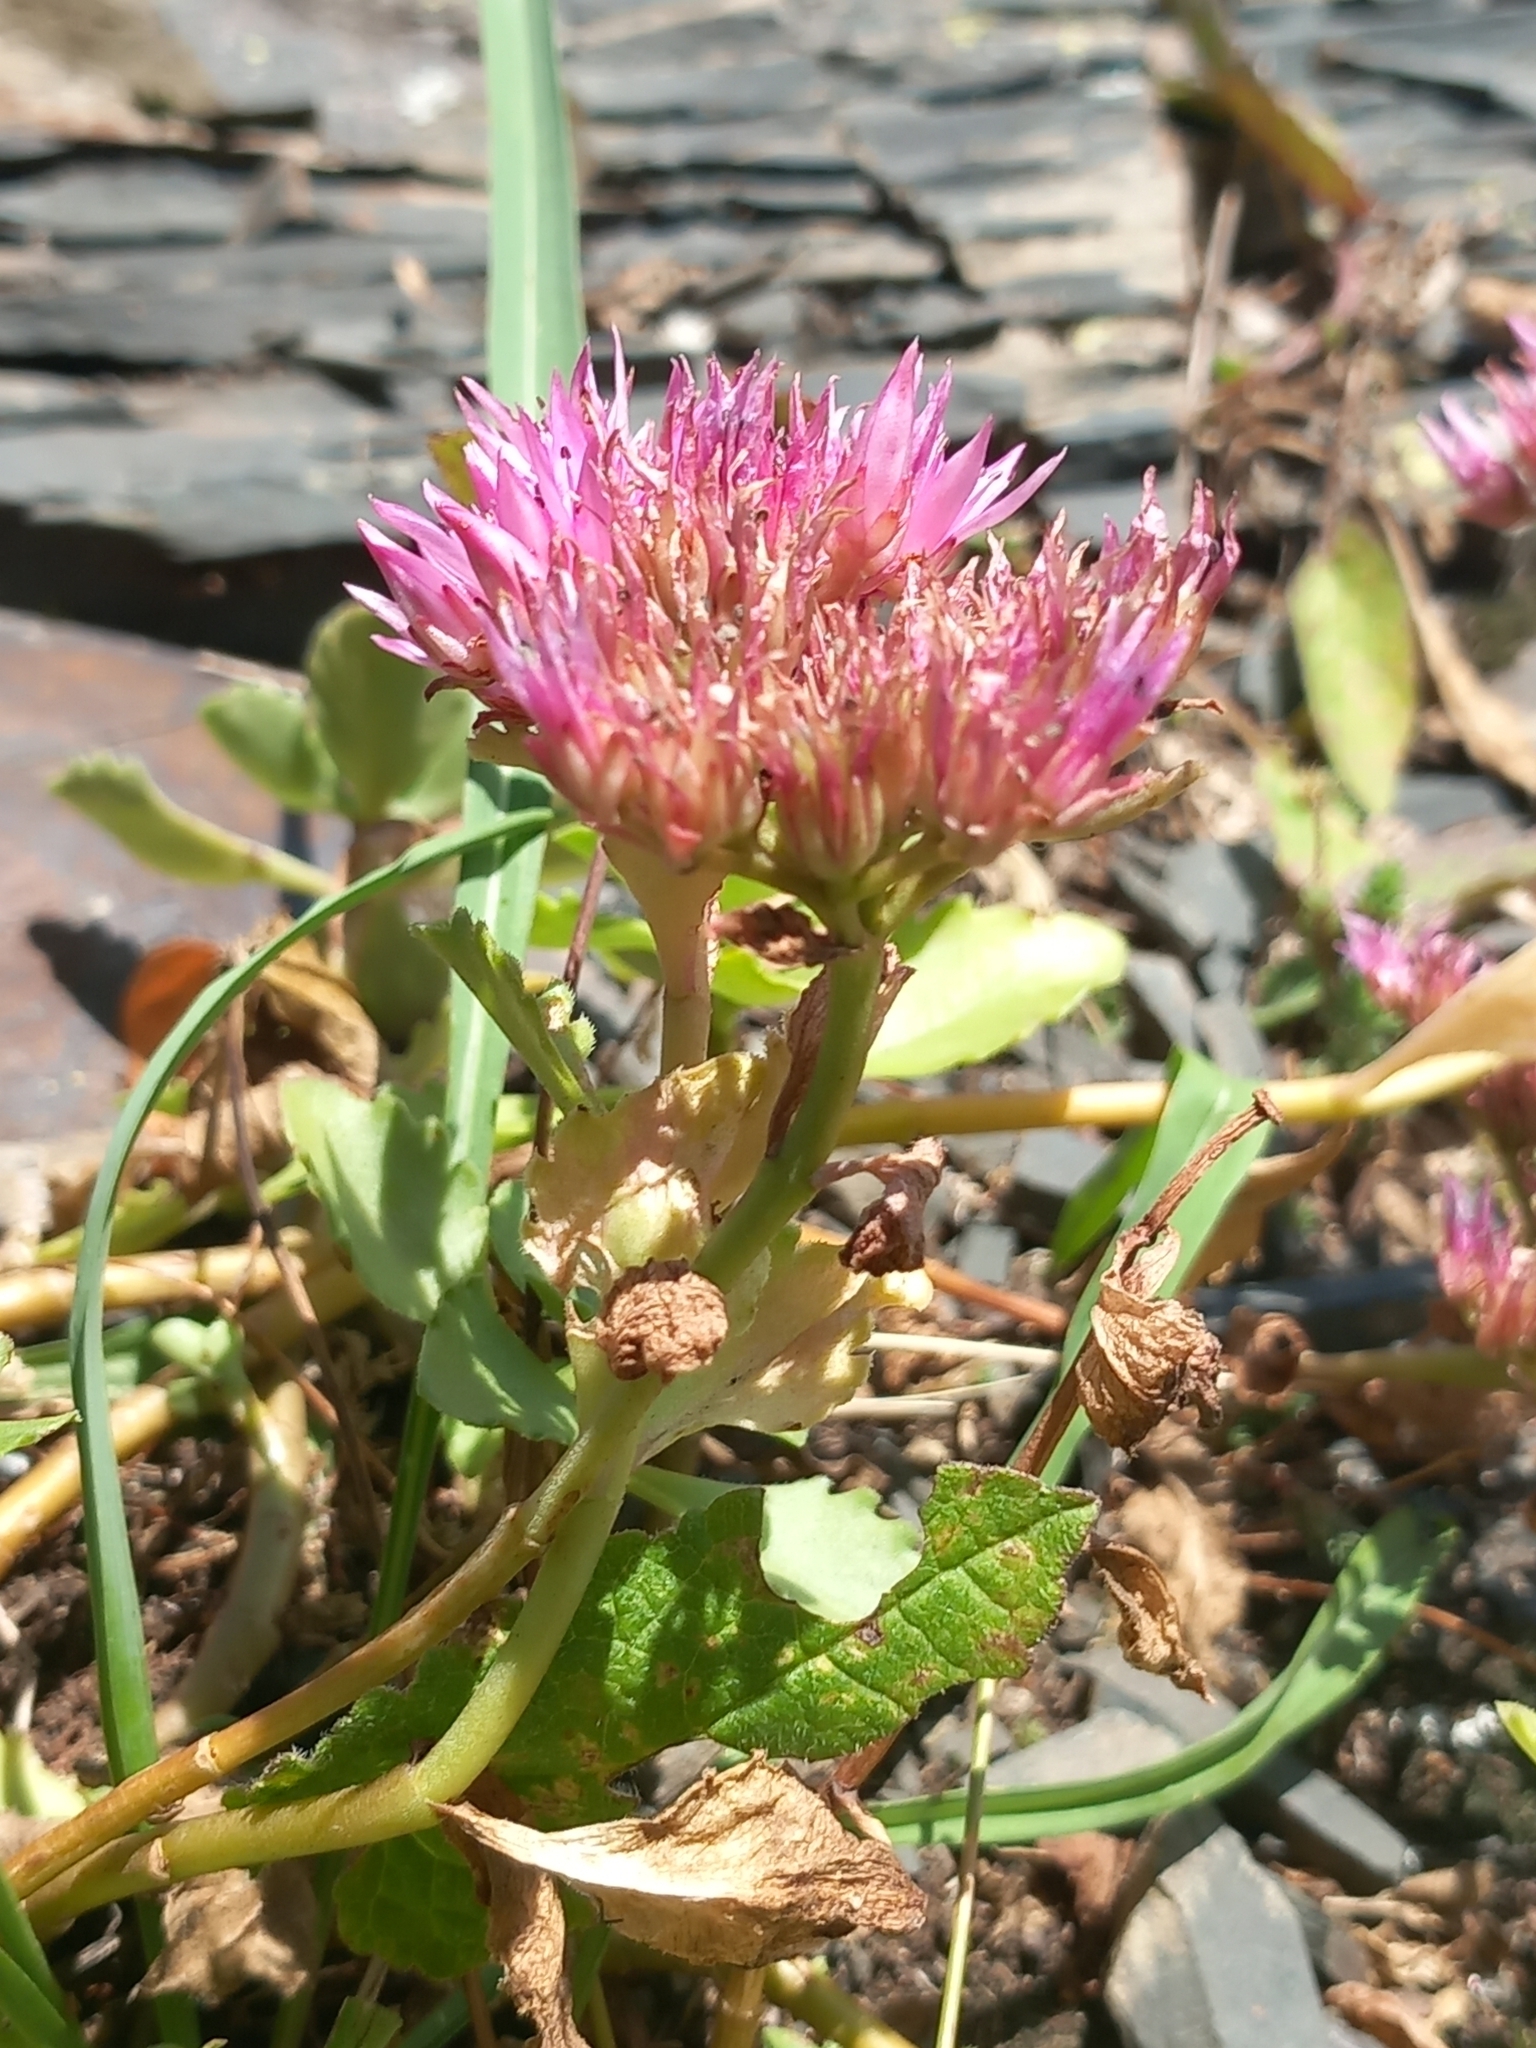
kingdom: Plantae
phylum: Tracheophyta
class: Magnoliopsida
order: Saxifragales
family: Crassulaceae
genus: Phedimus
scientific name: Phedimus spurius
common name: Caucasian stonecrop
